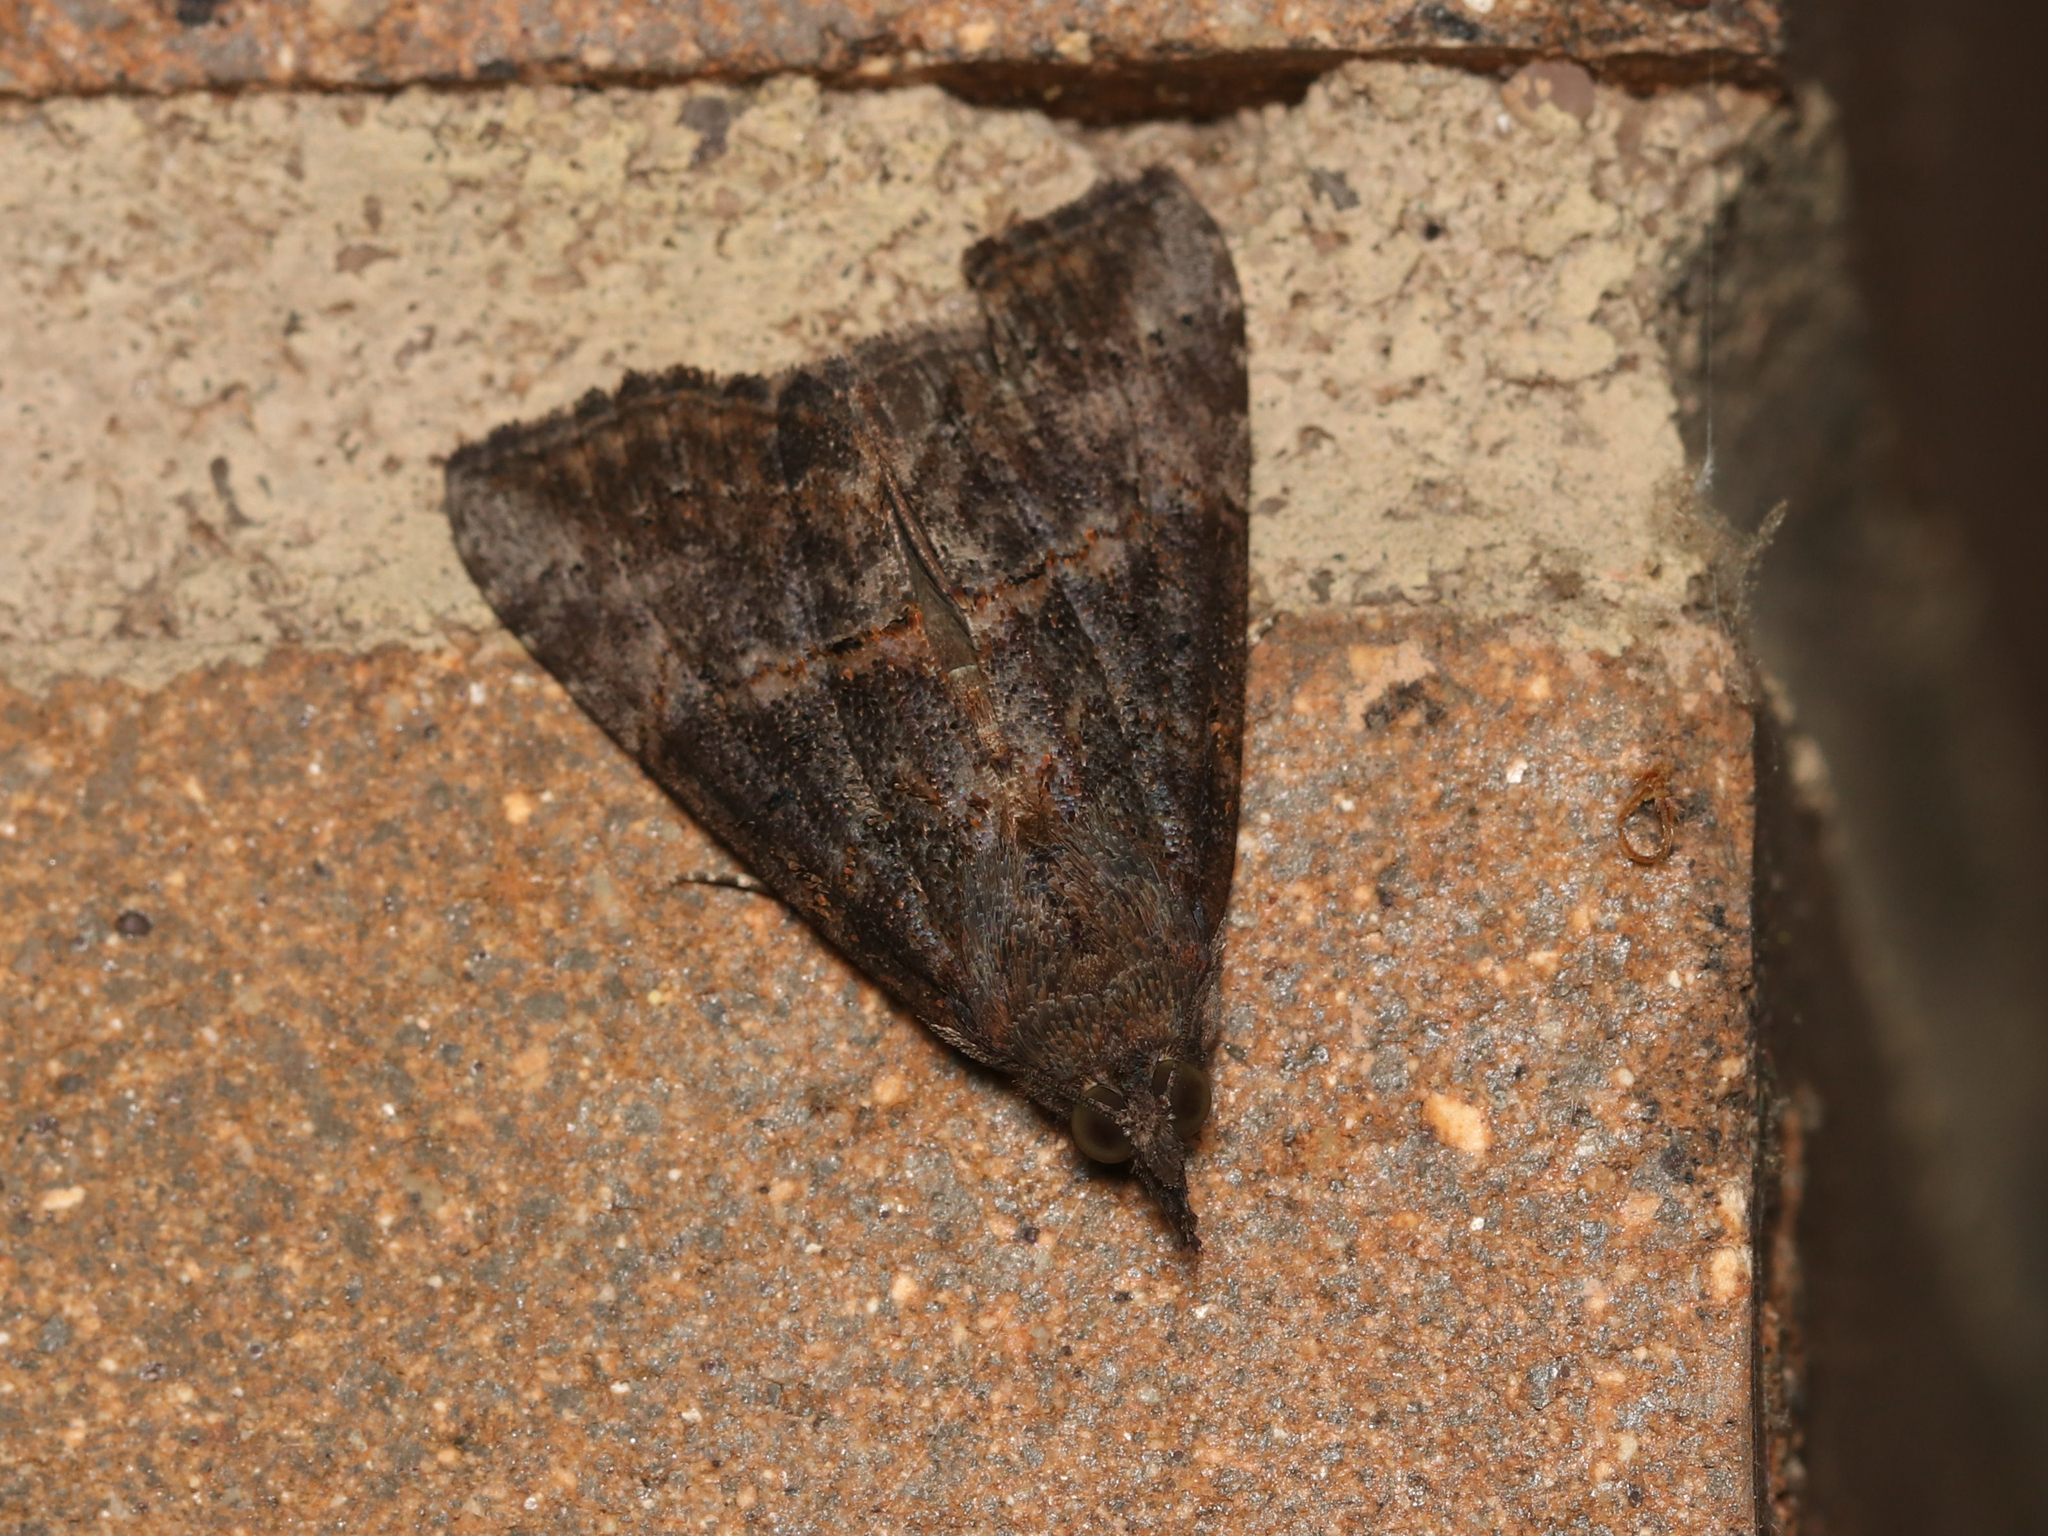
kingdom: Animalia
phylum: Arthropoda
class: Insecta
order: Lepidoptera
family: Erebidae
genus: Hypena
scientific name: Hypena scabra
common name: Green cloverworm
